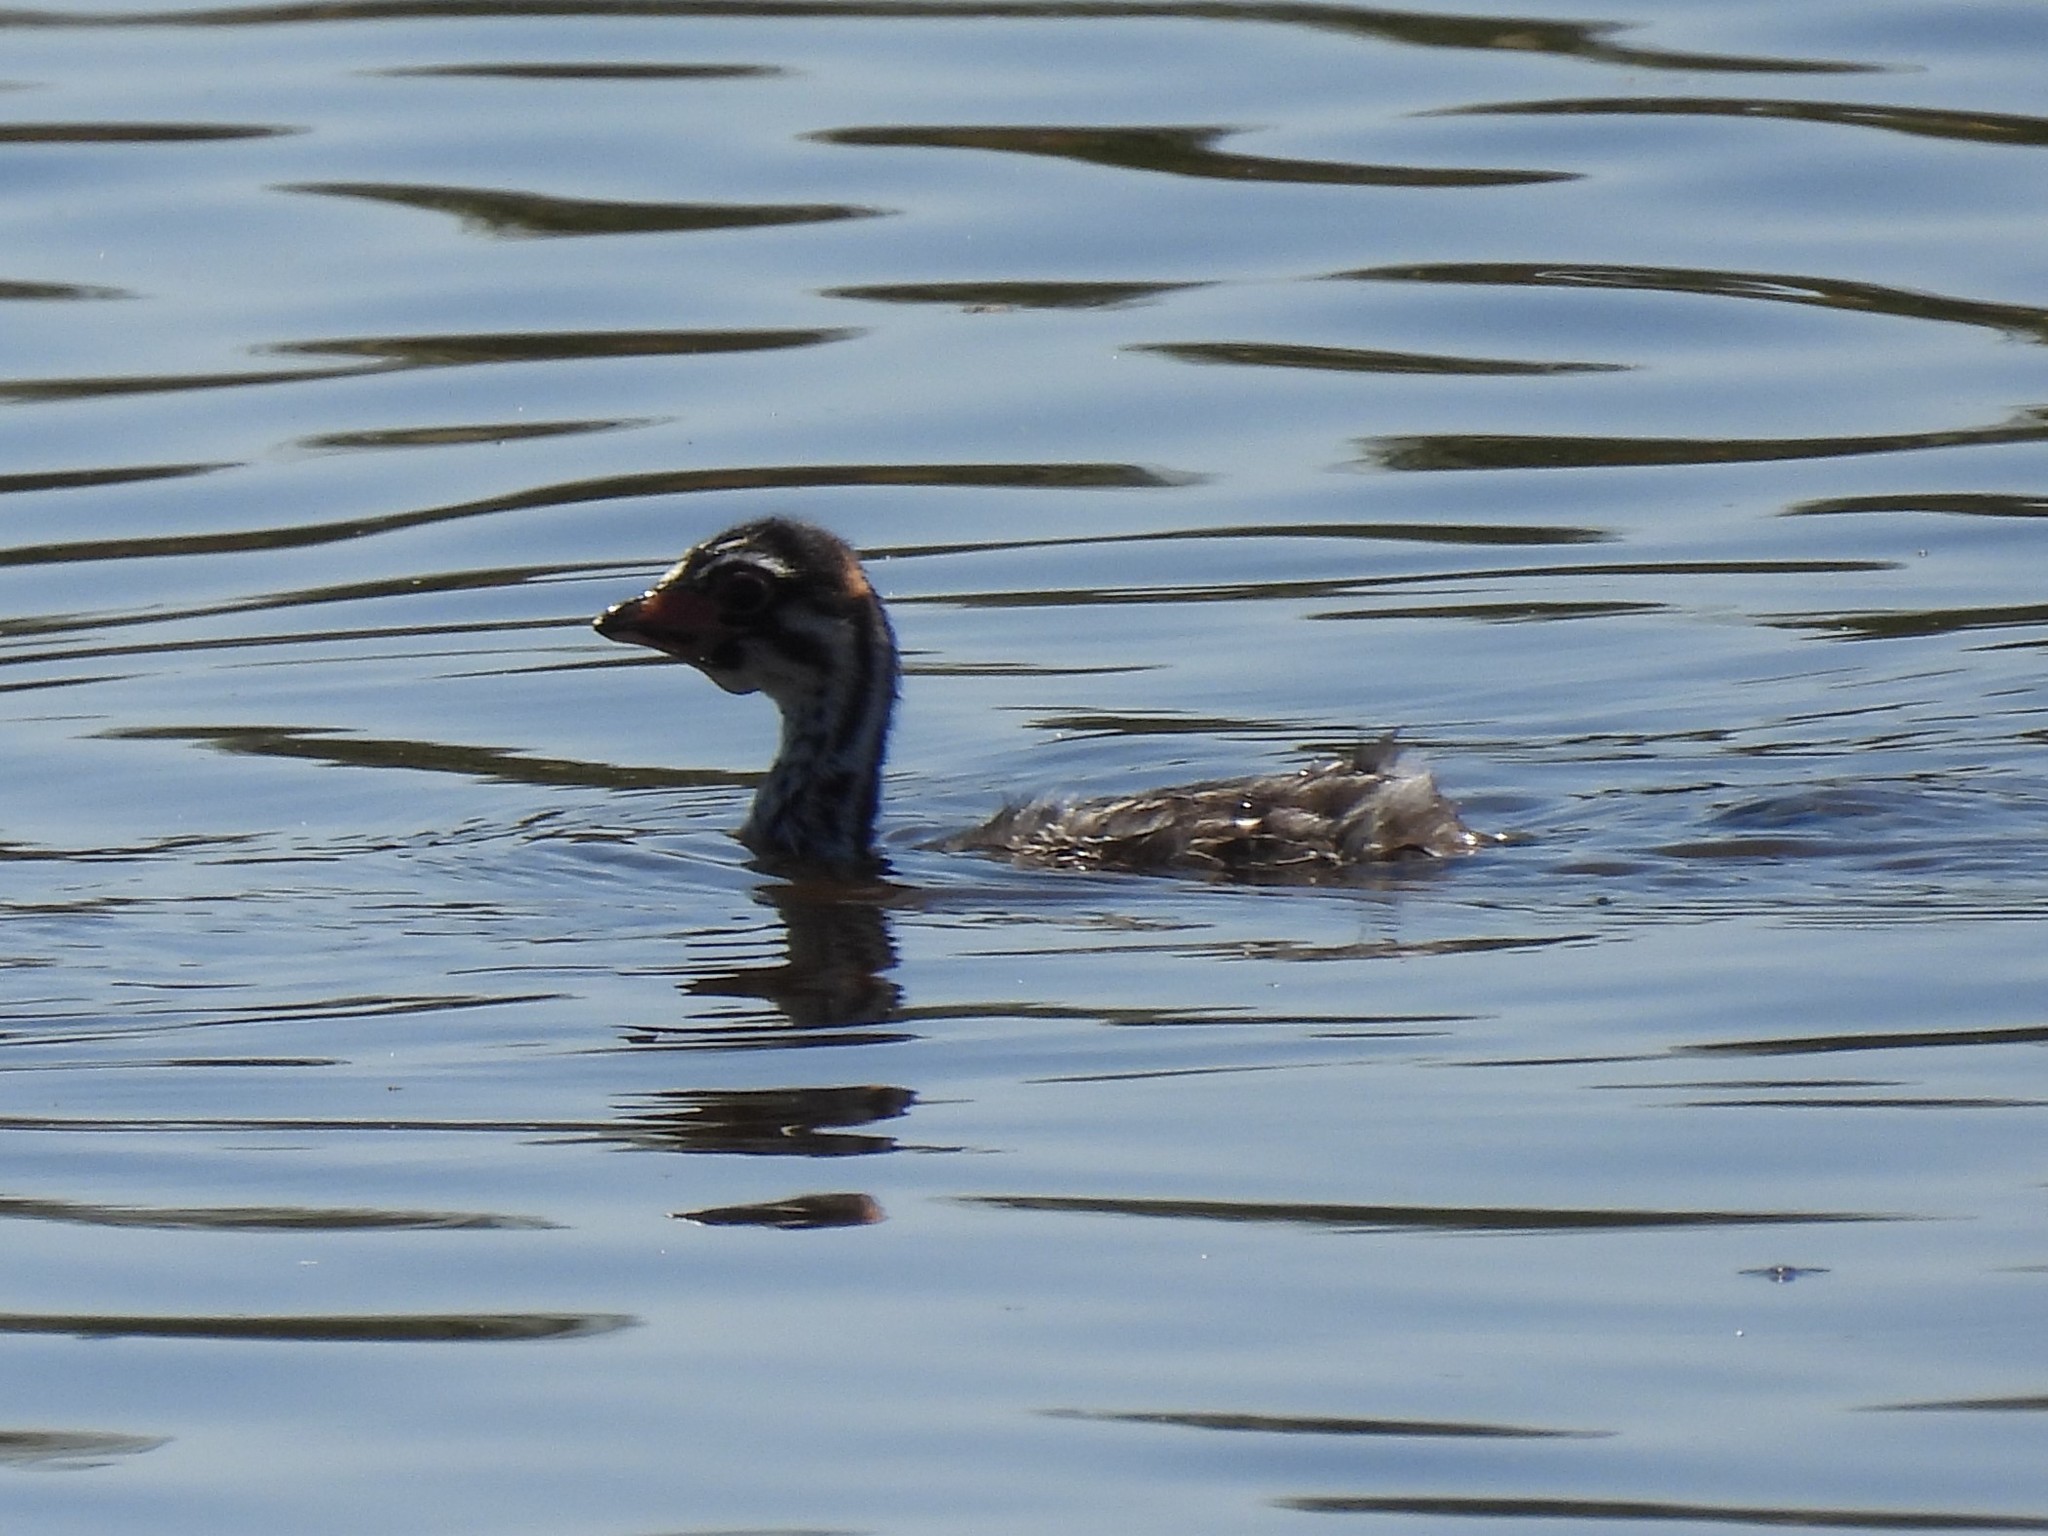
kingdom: Animalia
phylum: Chordata
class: Aves
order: Podicipediformes
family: Podicipedidae
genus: Podilymbus
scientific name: Podilymbus podiceps
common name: Pied-billed grebe
